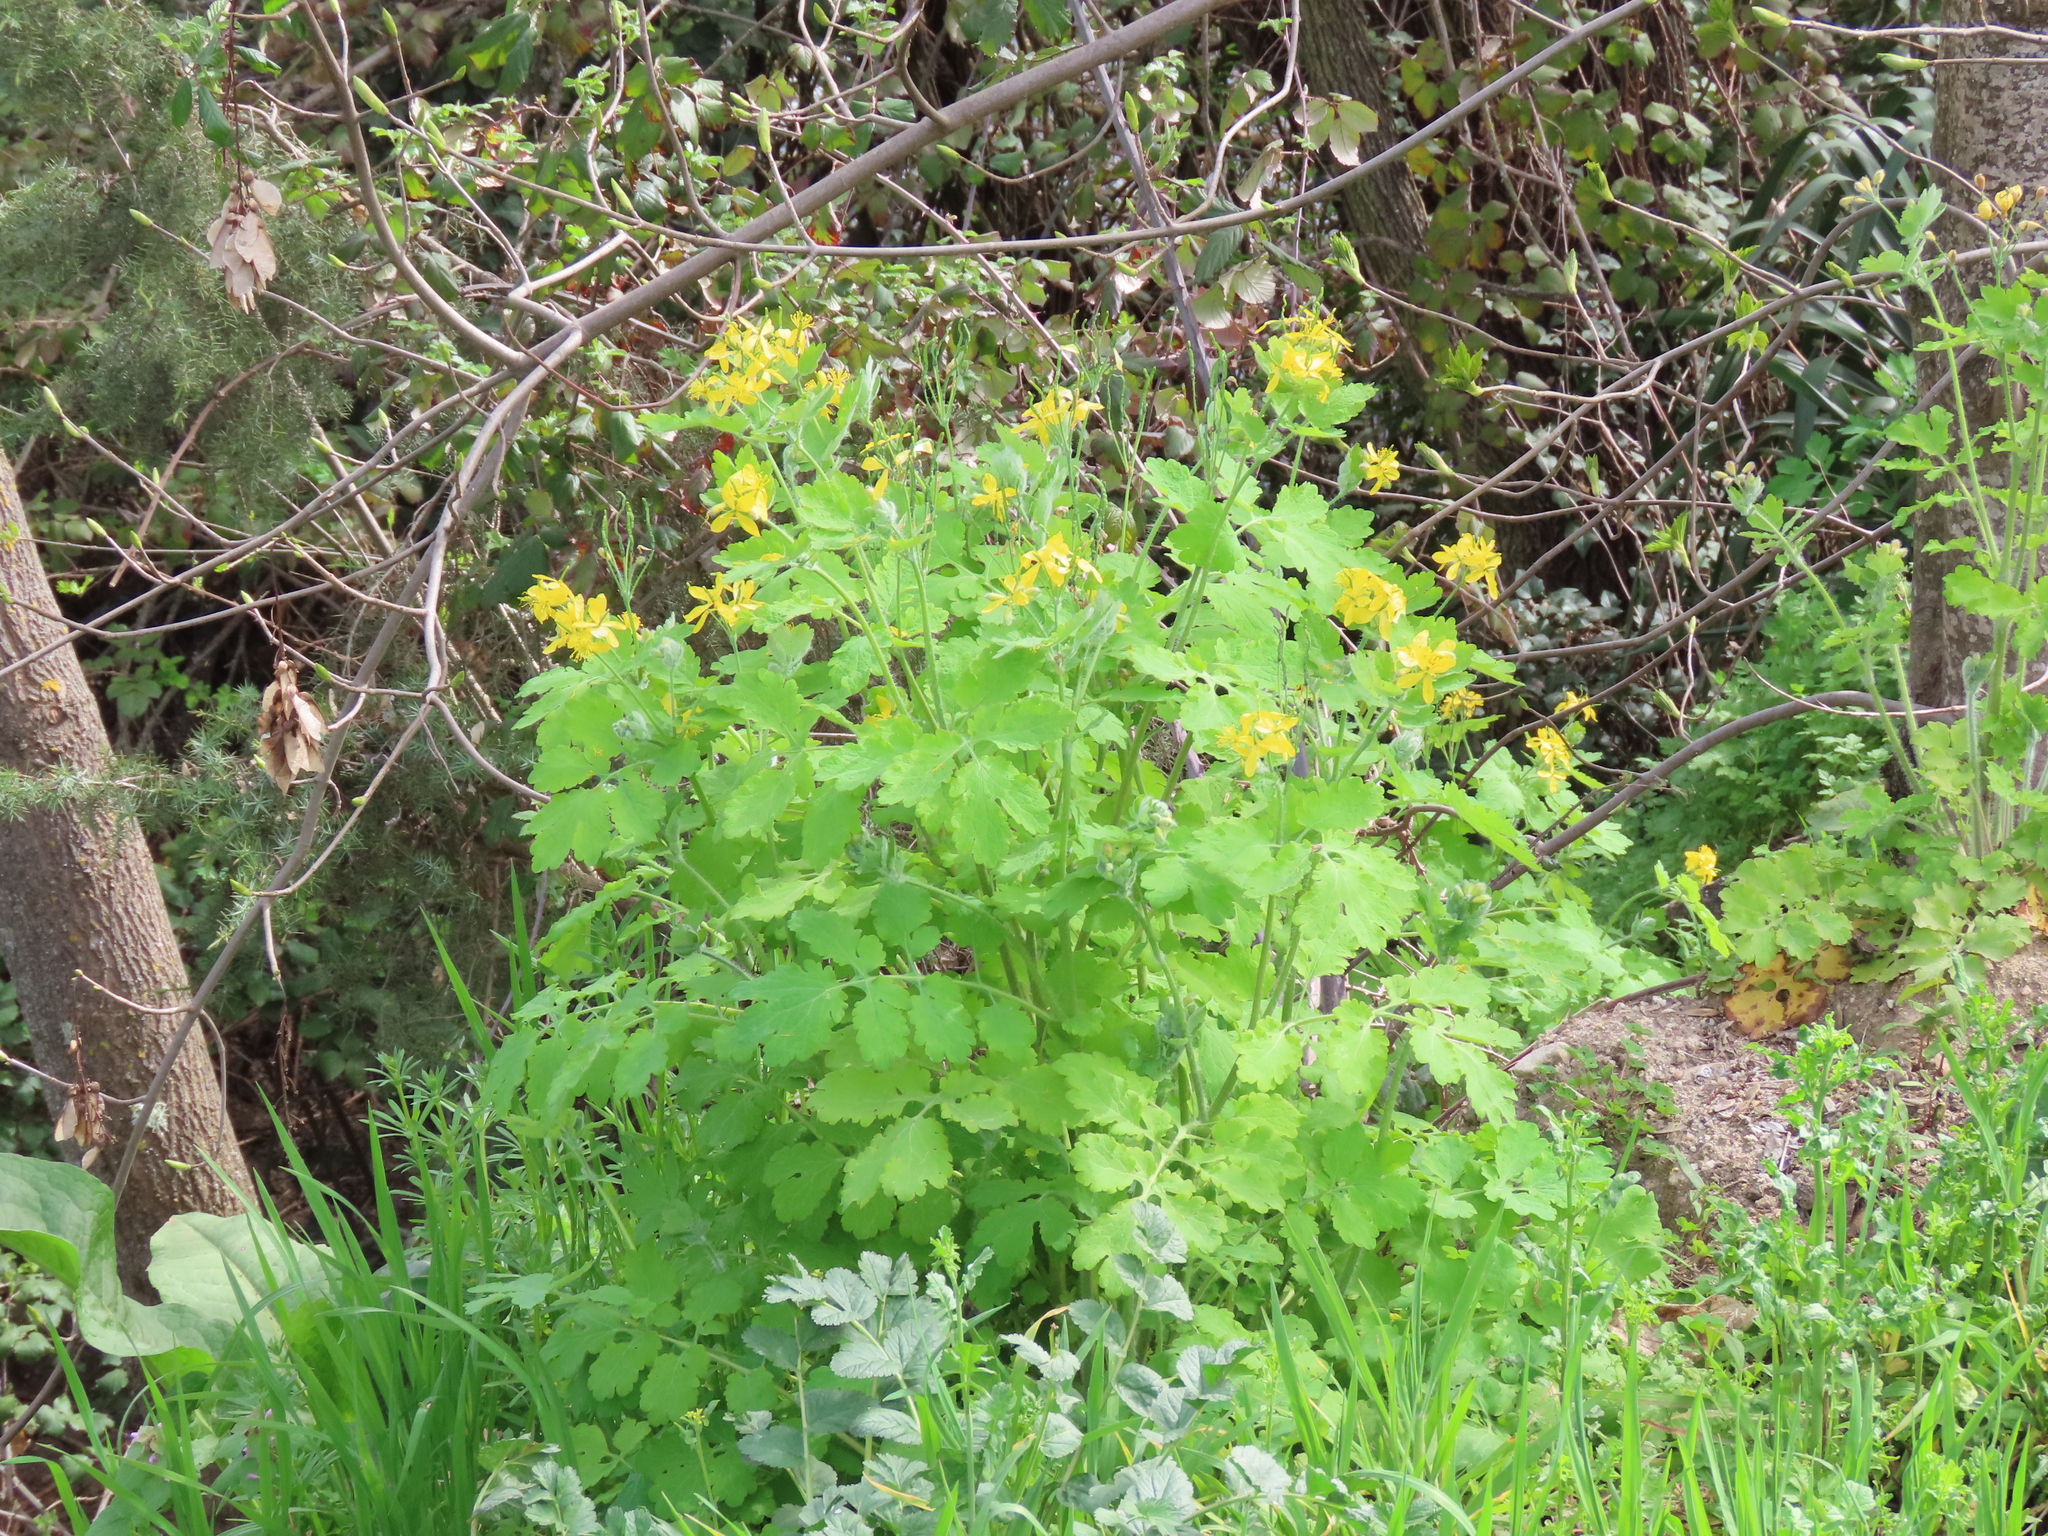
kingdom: Plantae
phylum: Tracheophyta
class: Magnoliopsida
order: Ranunculales
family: Papaveraceae
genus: Chelidonium
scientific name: Chelidonium majus
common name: Greater celandine
